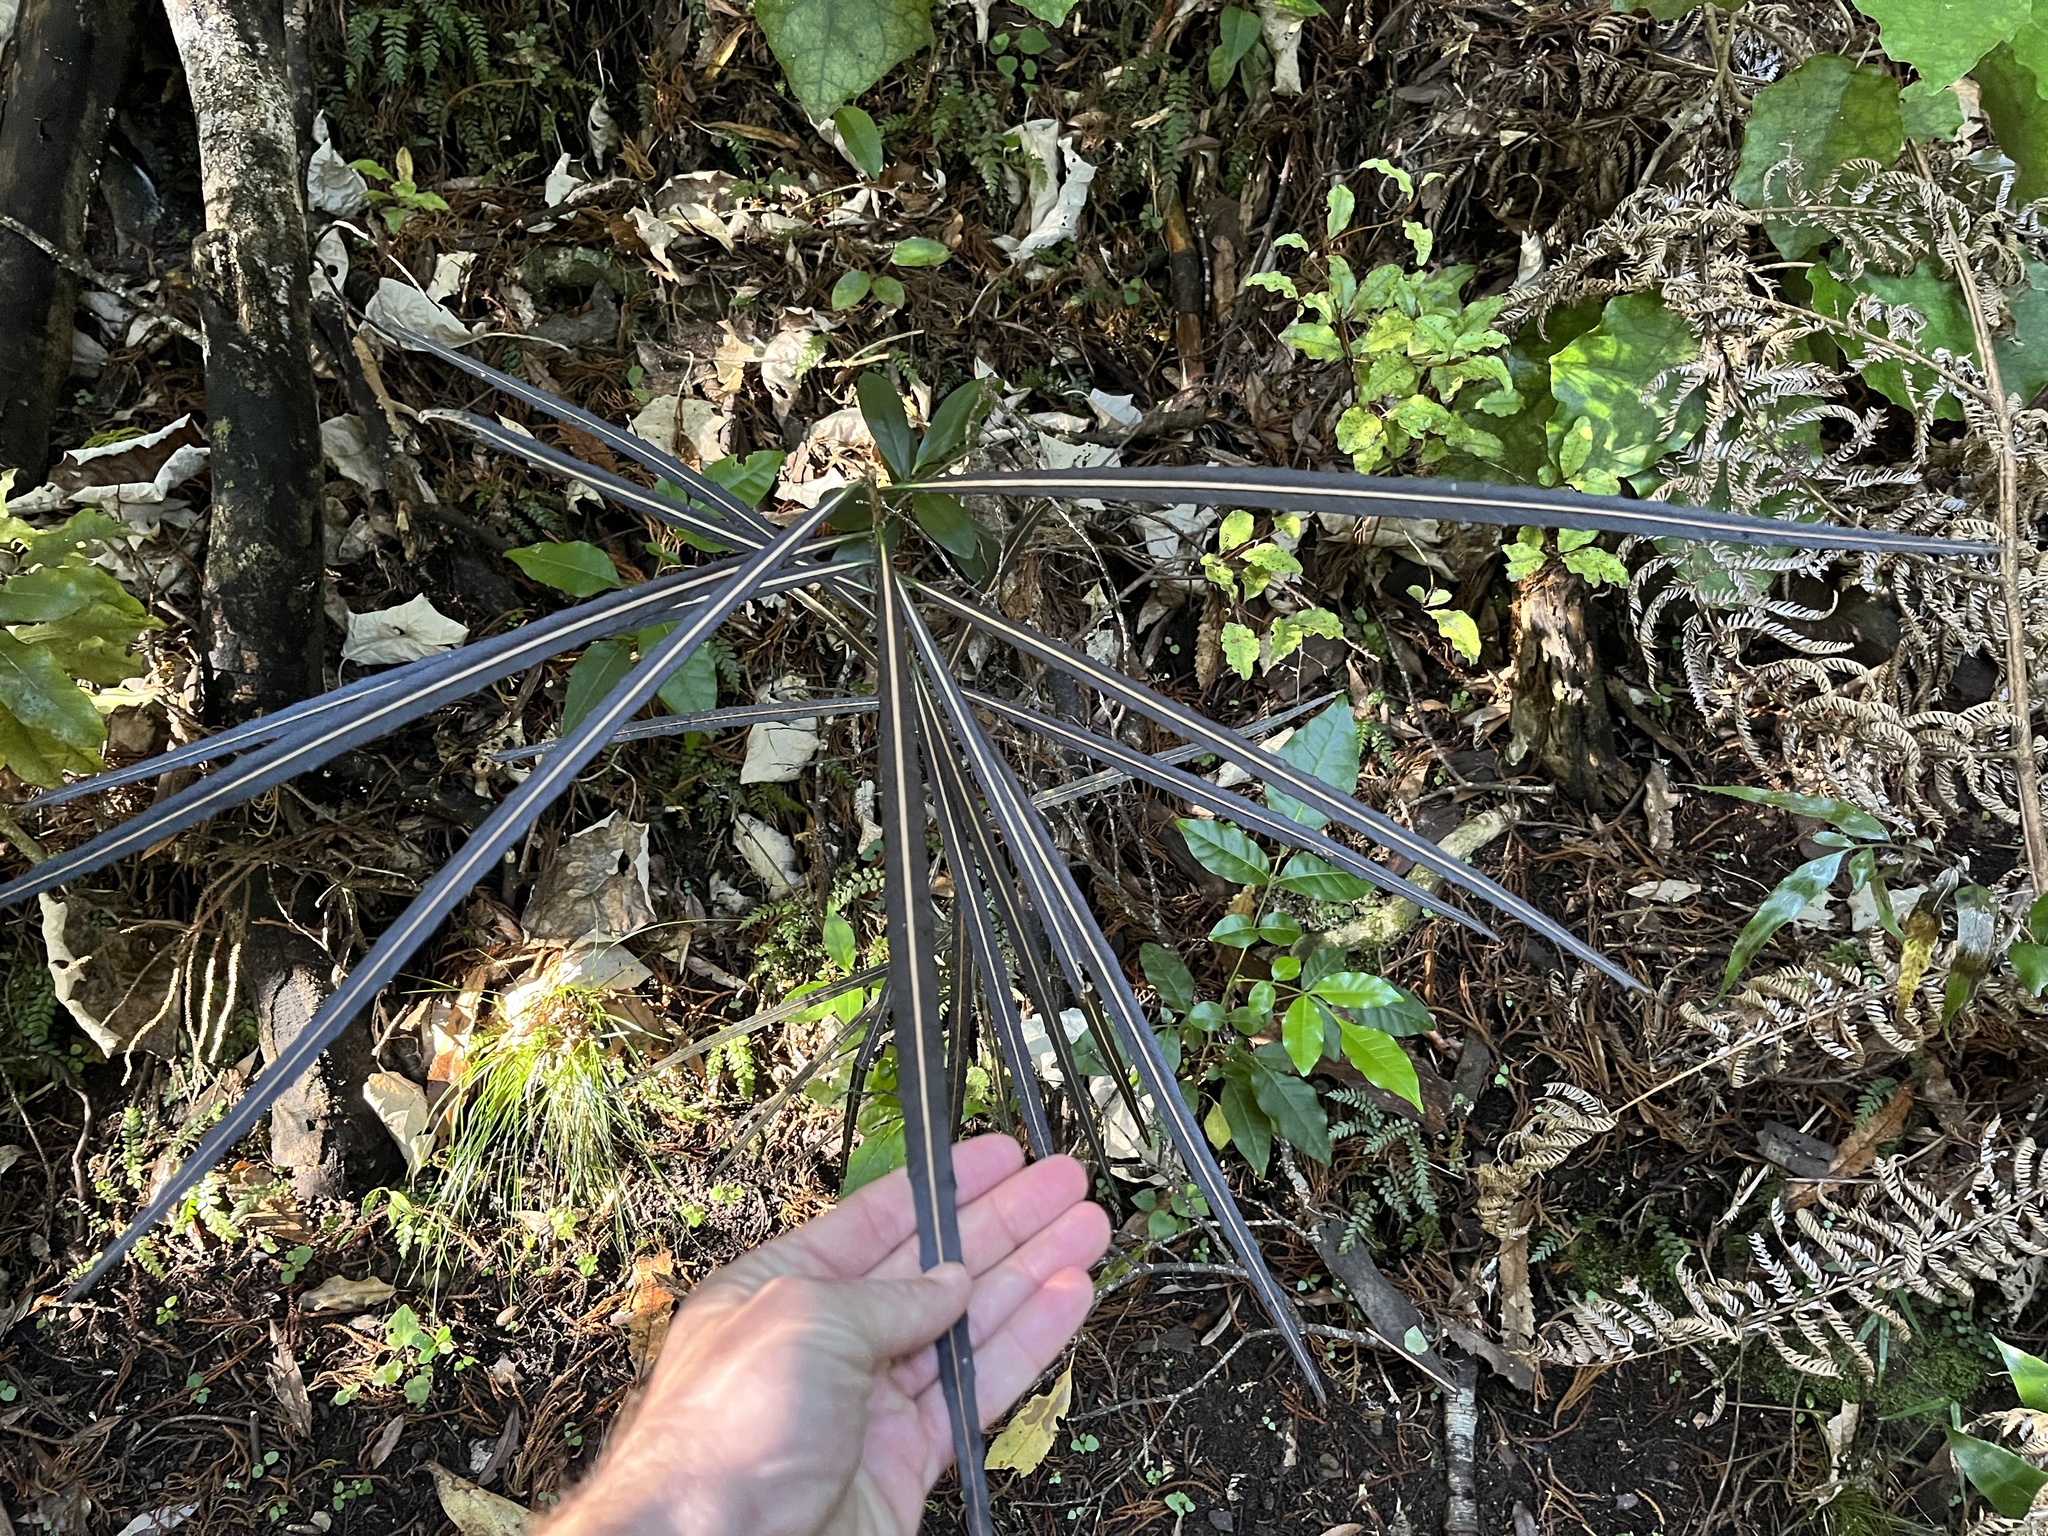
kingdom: Plantae
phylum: Tracheophyta
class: Magnoliopsida
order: Apiales
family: Araliaceae
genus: Pseudopanax
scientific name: Pseudopanax crassifolius
